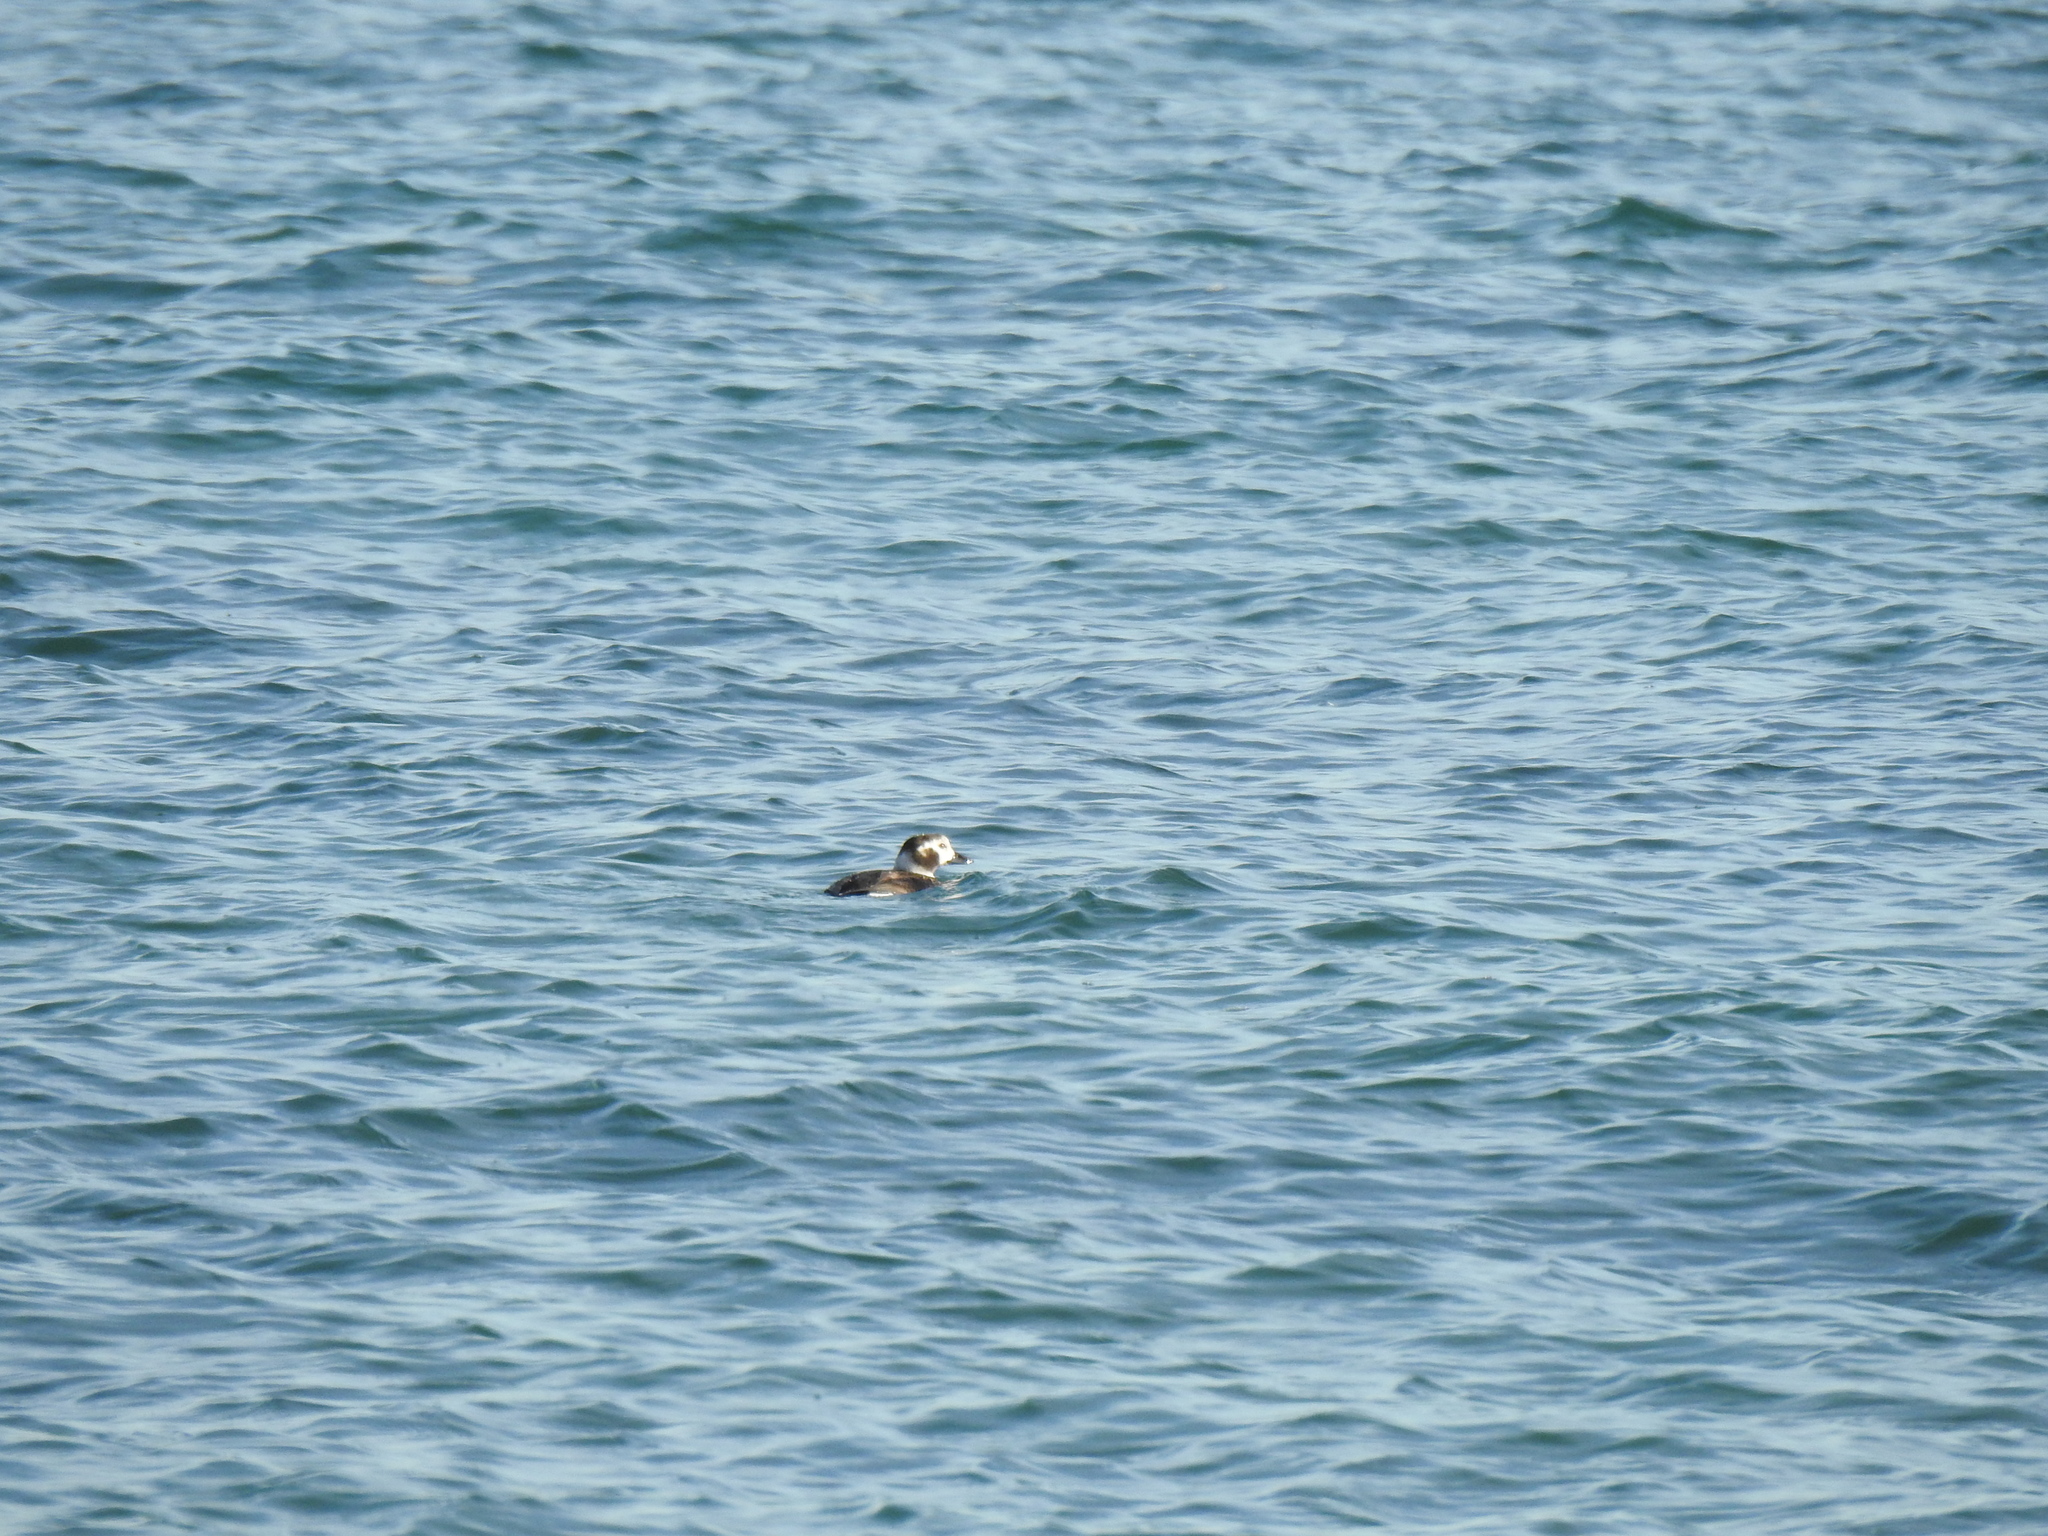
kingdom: Animalia
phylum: Chordata
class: Aves
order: Anseriformes
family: Anatidae
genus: Clangula
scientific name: Clangula hyemalis
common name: Long-tailed duck
